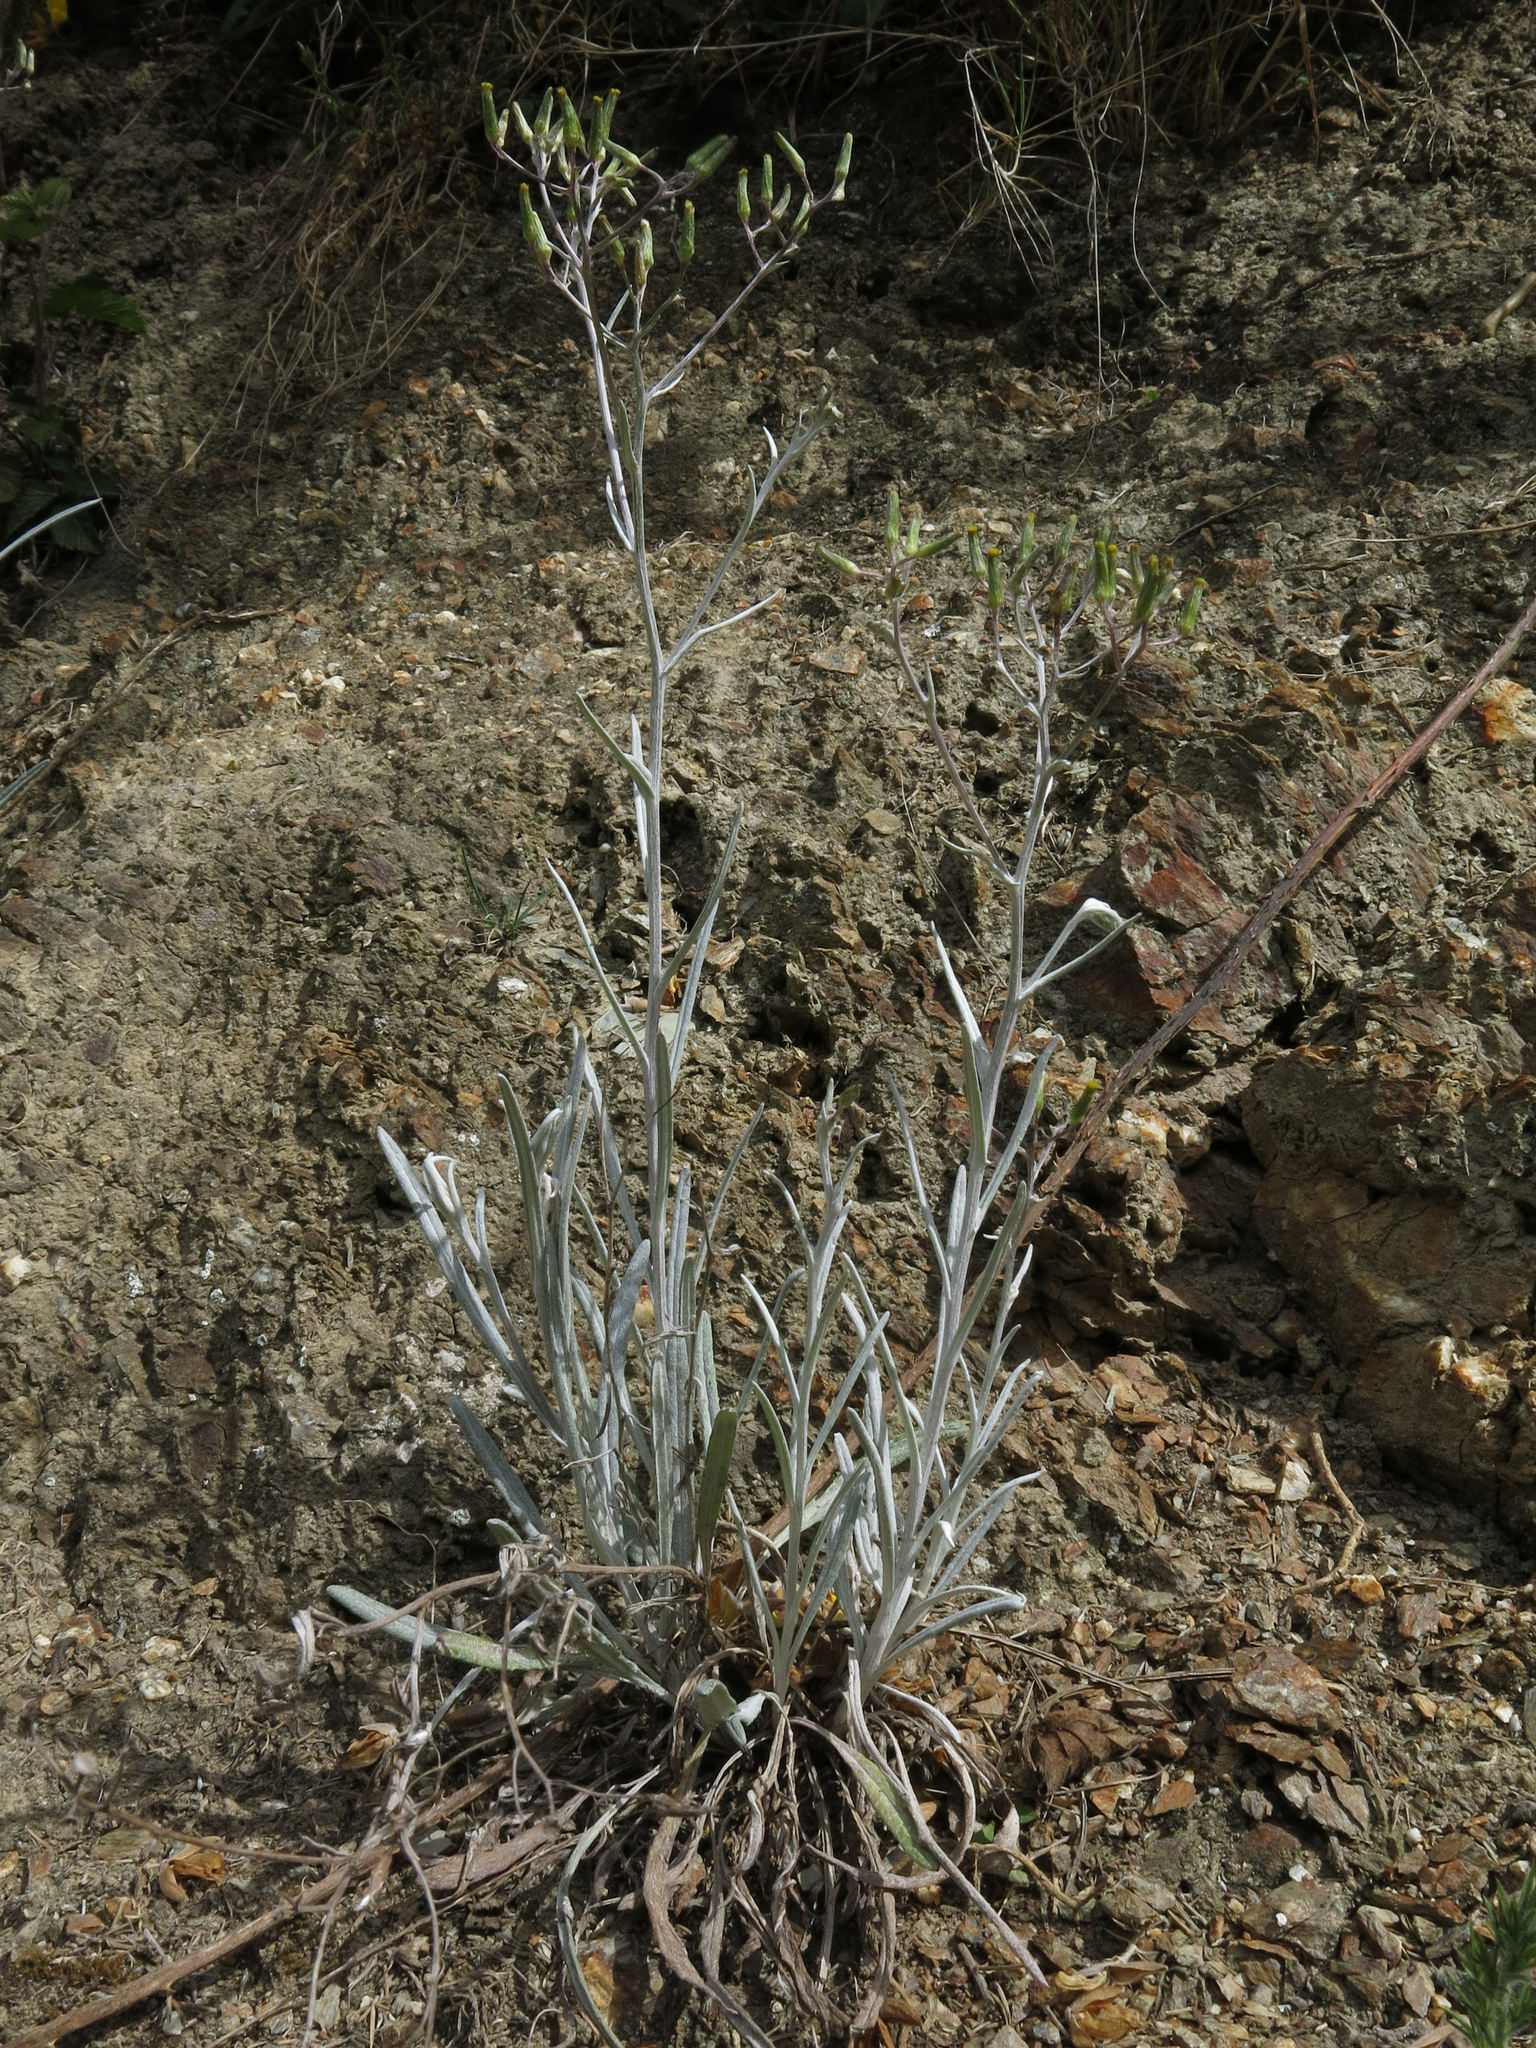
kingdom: Plantae
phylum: Tracheophyta
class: Magnoliopsida
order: Asterales
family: Asteraceae
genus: Senecio
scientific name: Senecio quadridentatus
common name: Cotton fireweed
